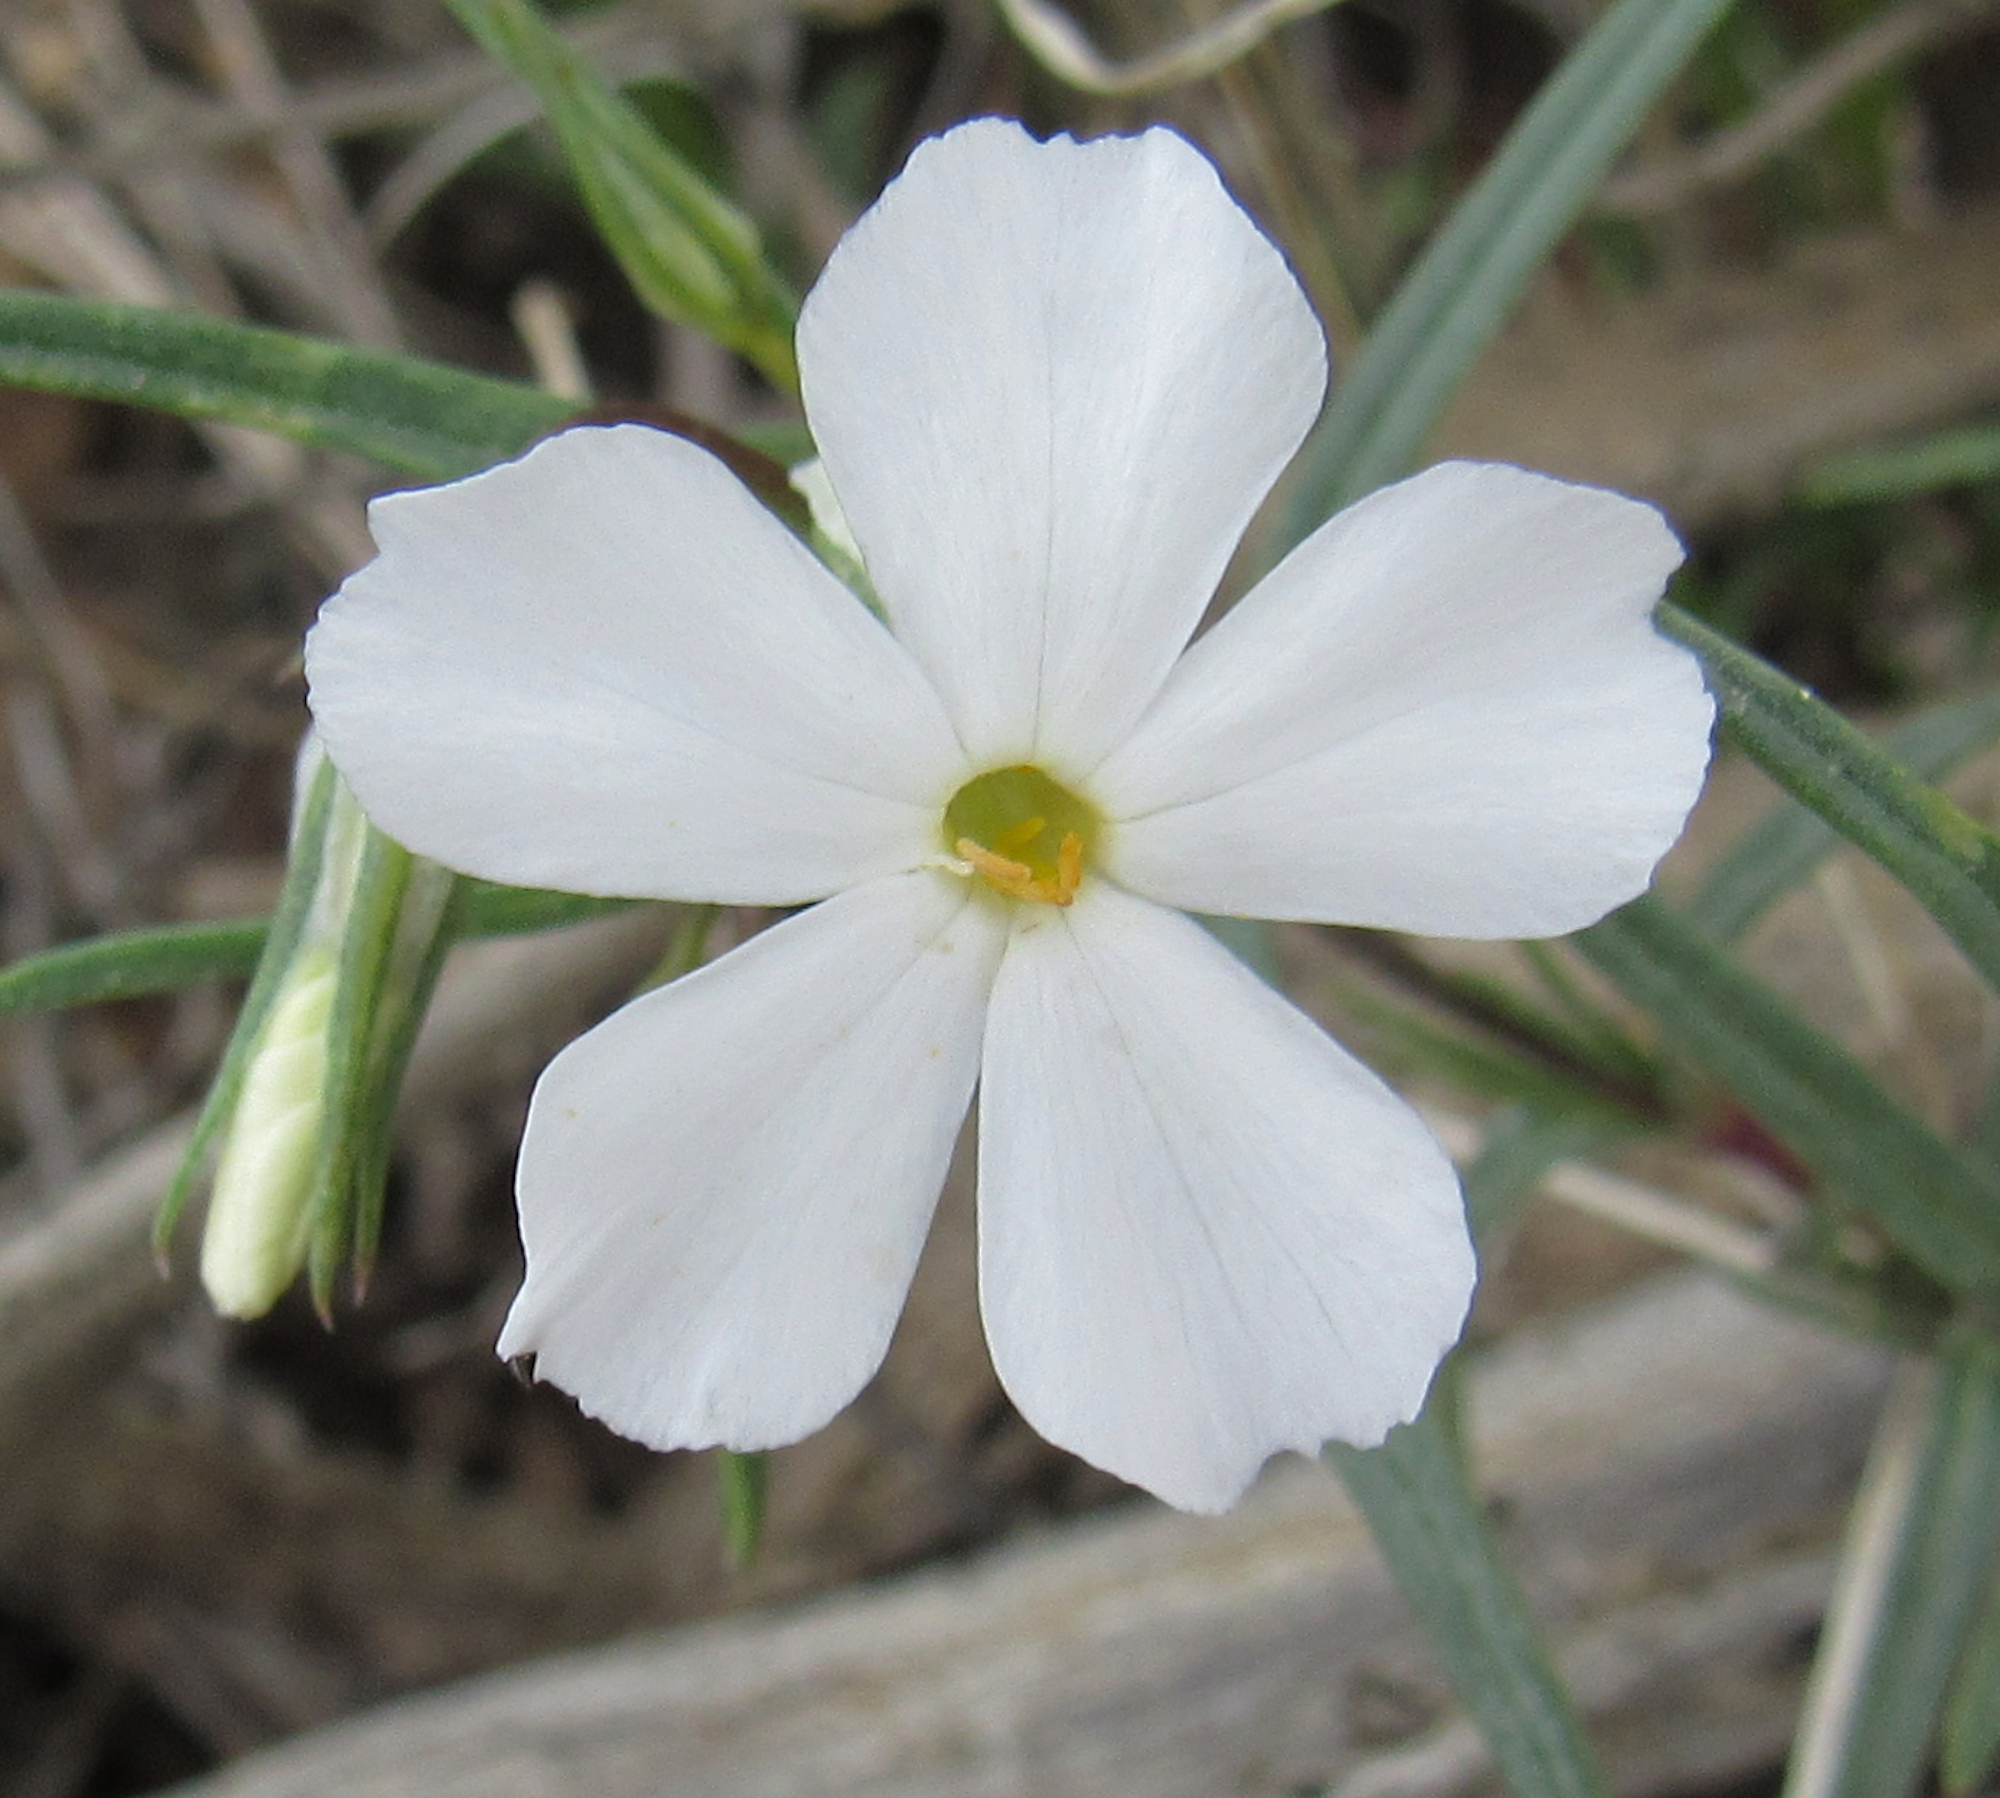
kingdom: Plantae
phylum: Tracheophyta
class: Magnoliopsida
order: Ericales
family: Polemoniaceae
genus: Phlox
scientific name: Phlox longifolia
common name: Longleaf phlox
